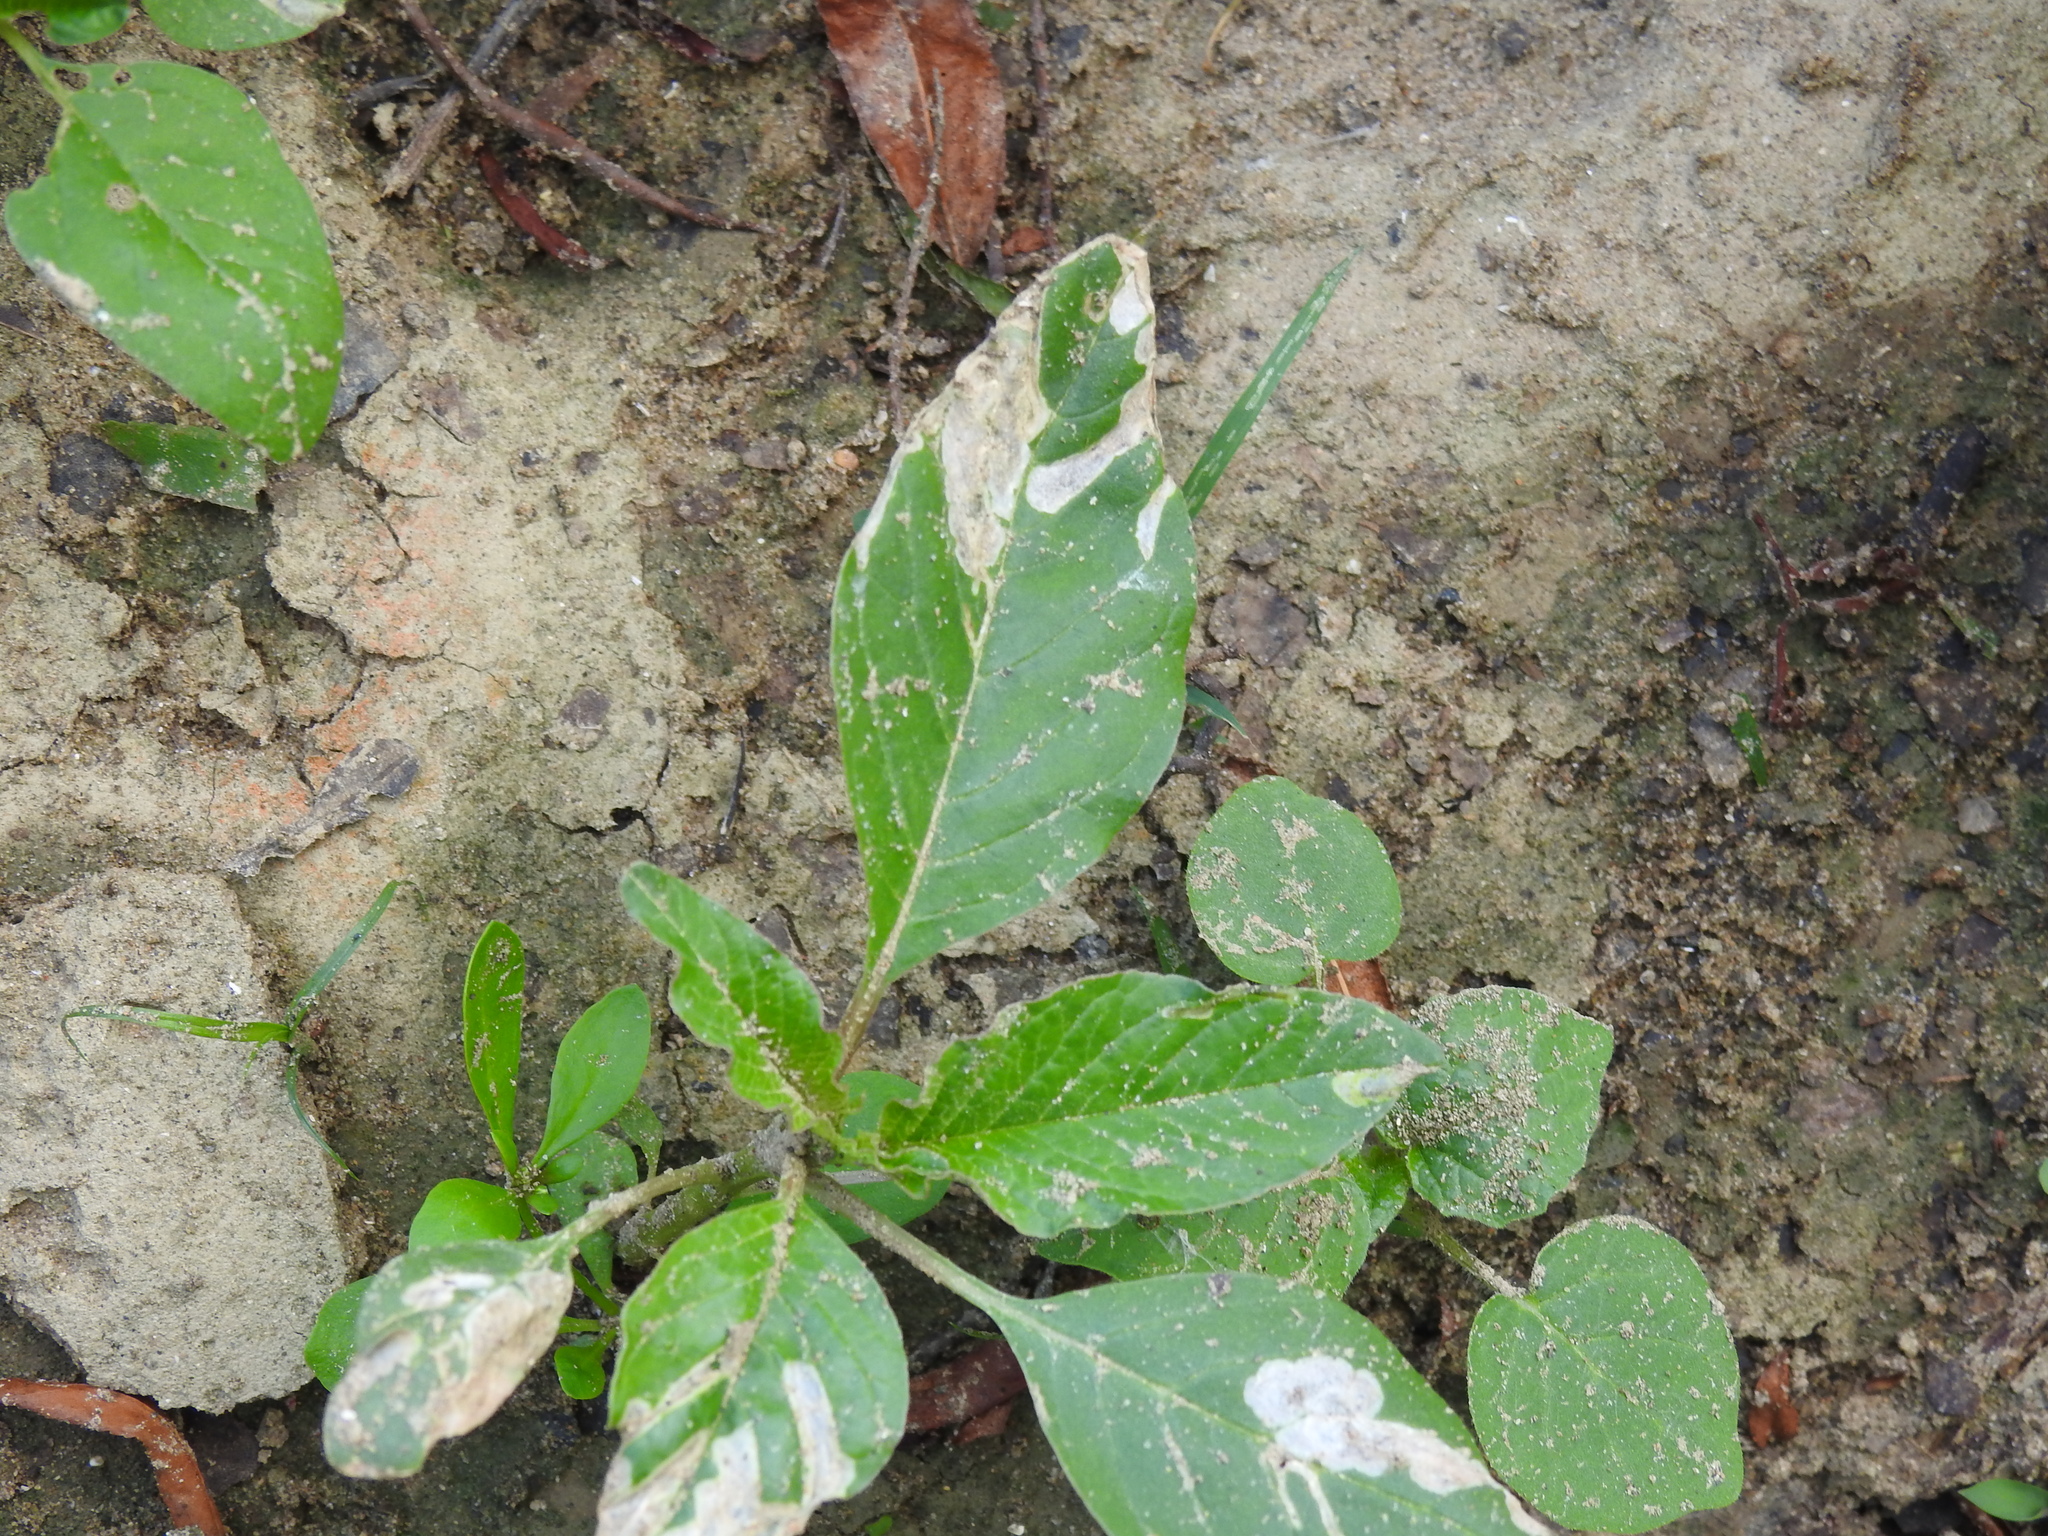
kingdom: Animalia
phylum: Arthropoda
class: Insecta
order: Diptera
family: Anthomyiidae
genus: Pegomya
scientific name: Pegomya wygodzinskyi
